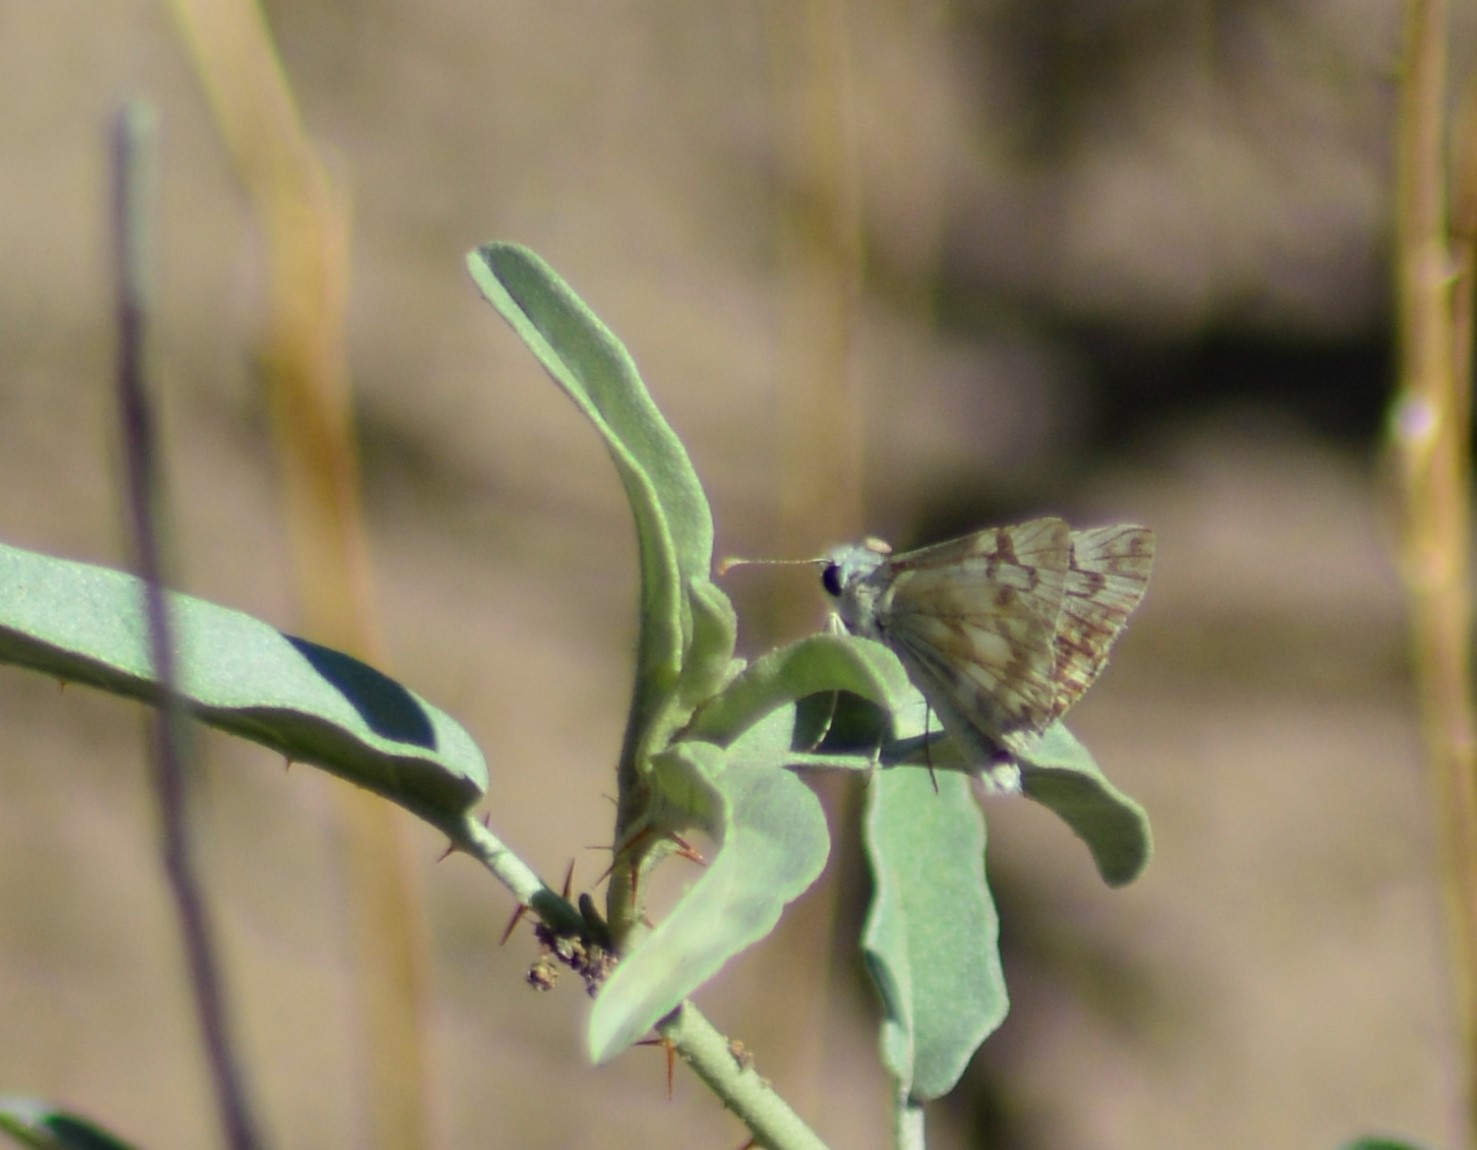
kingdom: Animalia
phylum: Arthropoda
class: Insecta
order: Lepidoptera
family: Hesperiidae
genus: Heliopetes
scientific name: Heliopetes americanus
